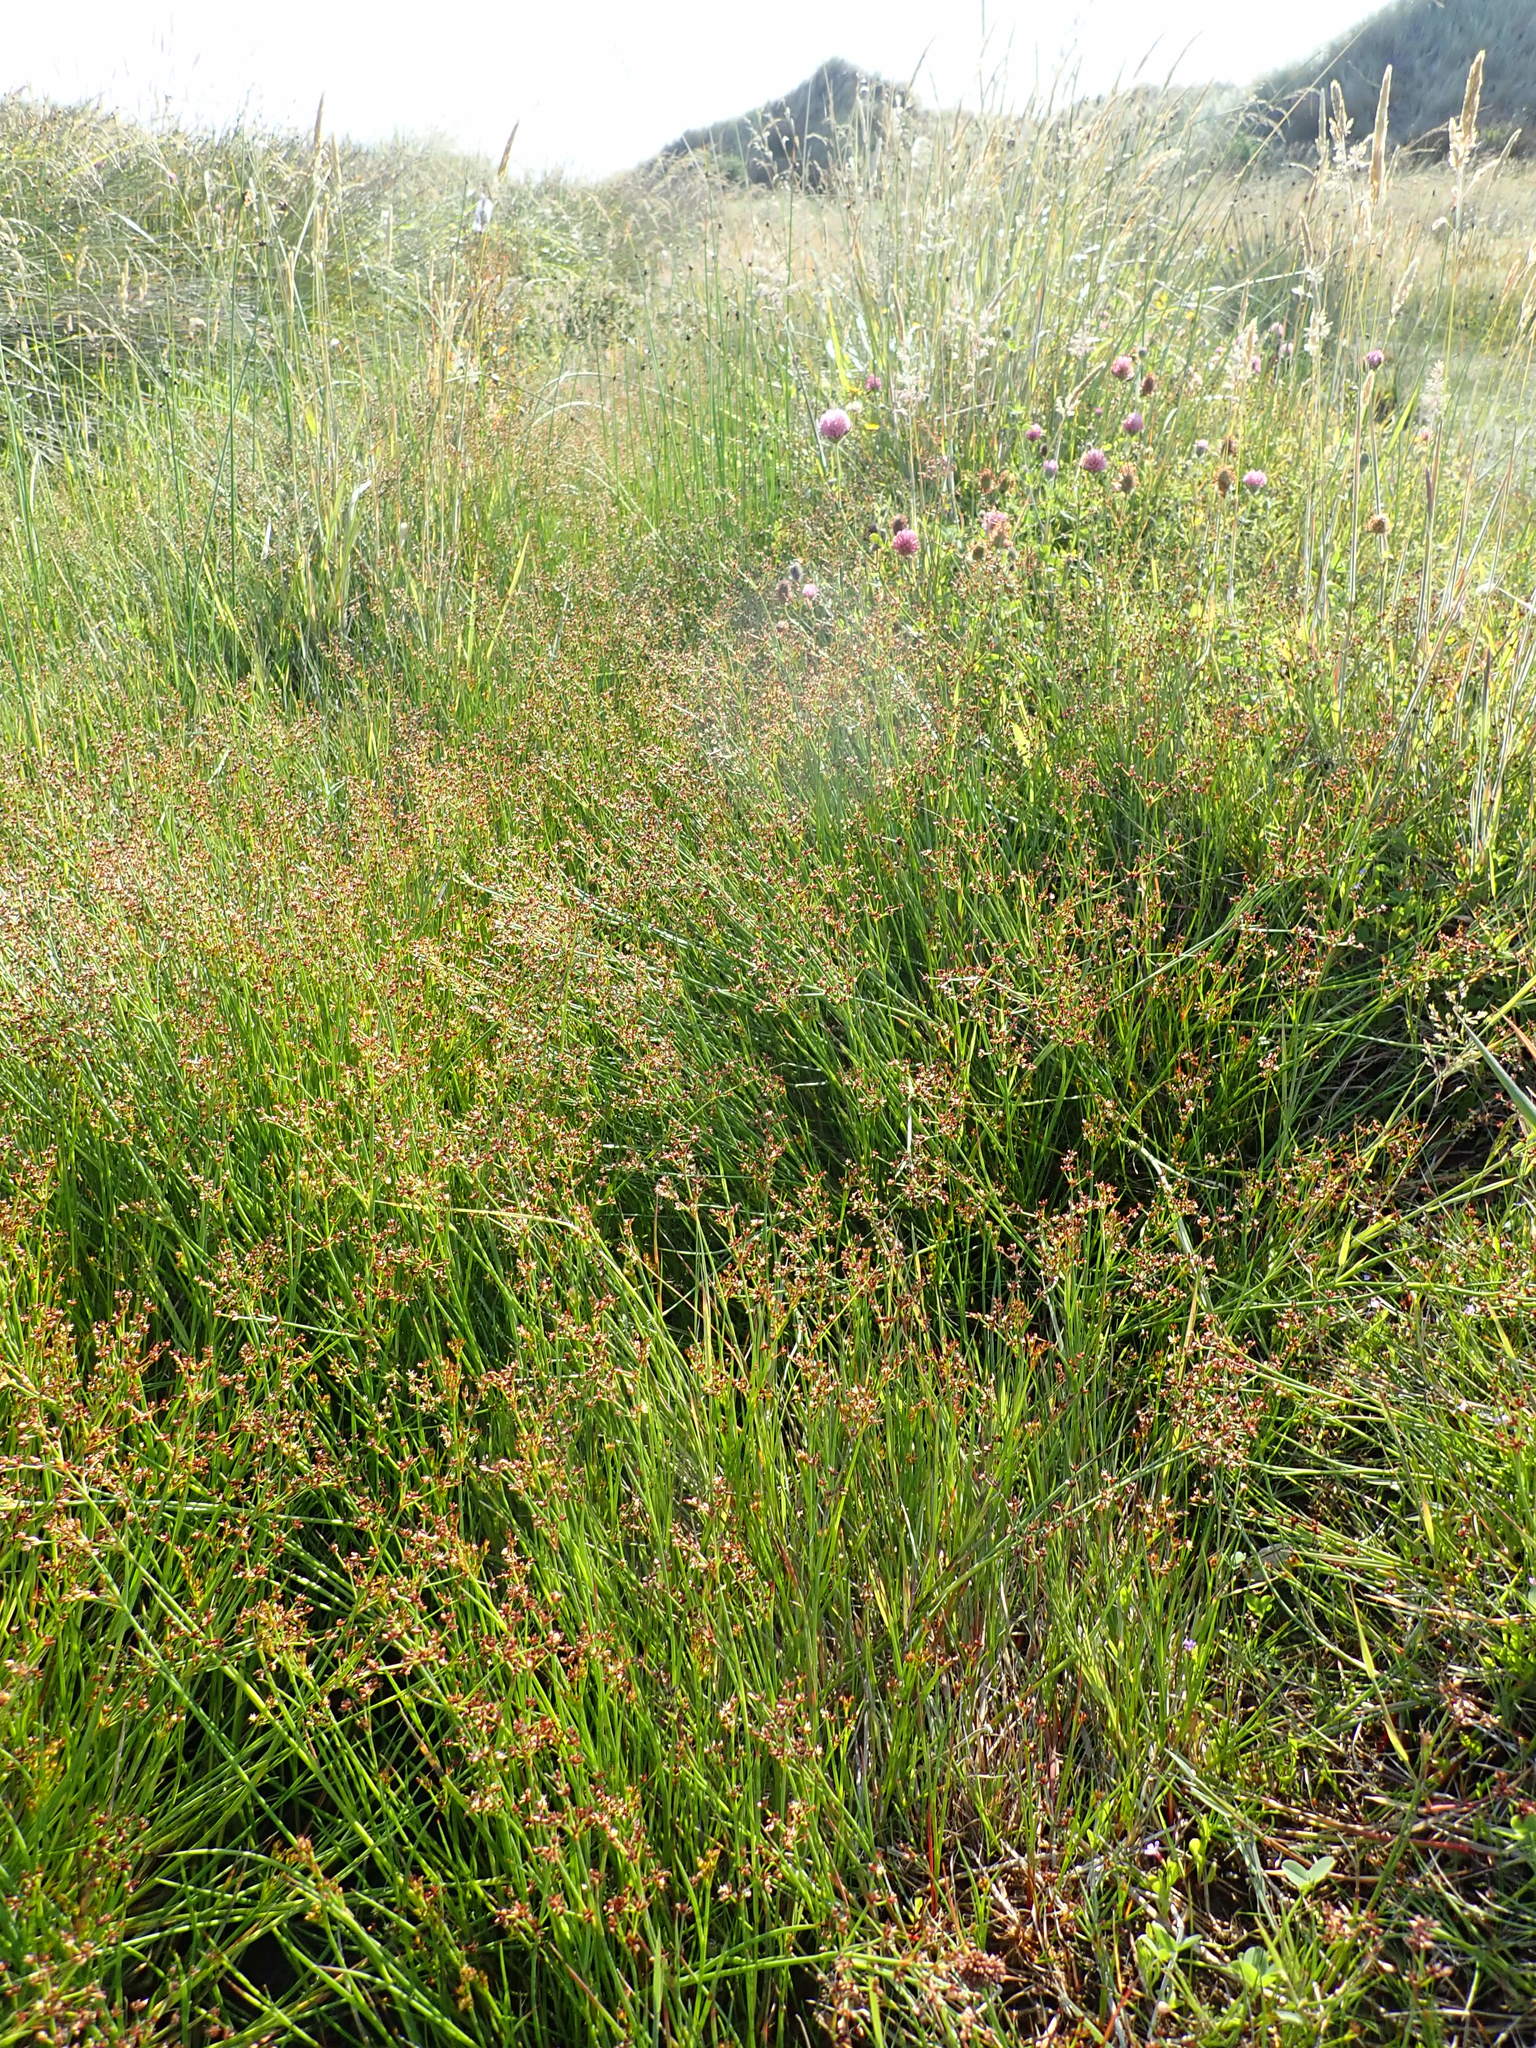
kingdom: Plantae
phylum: Tracheophyta
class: Liliopsida
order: Poales
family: Juncaceae
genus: Juncus
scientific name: Juncus articulatus
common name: Jointed rush
